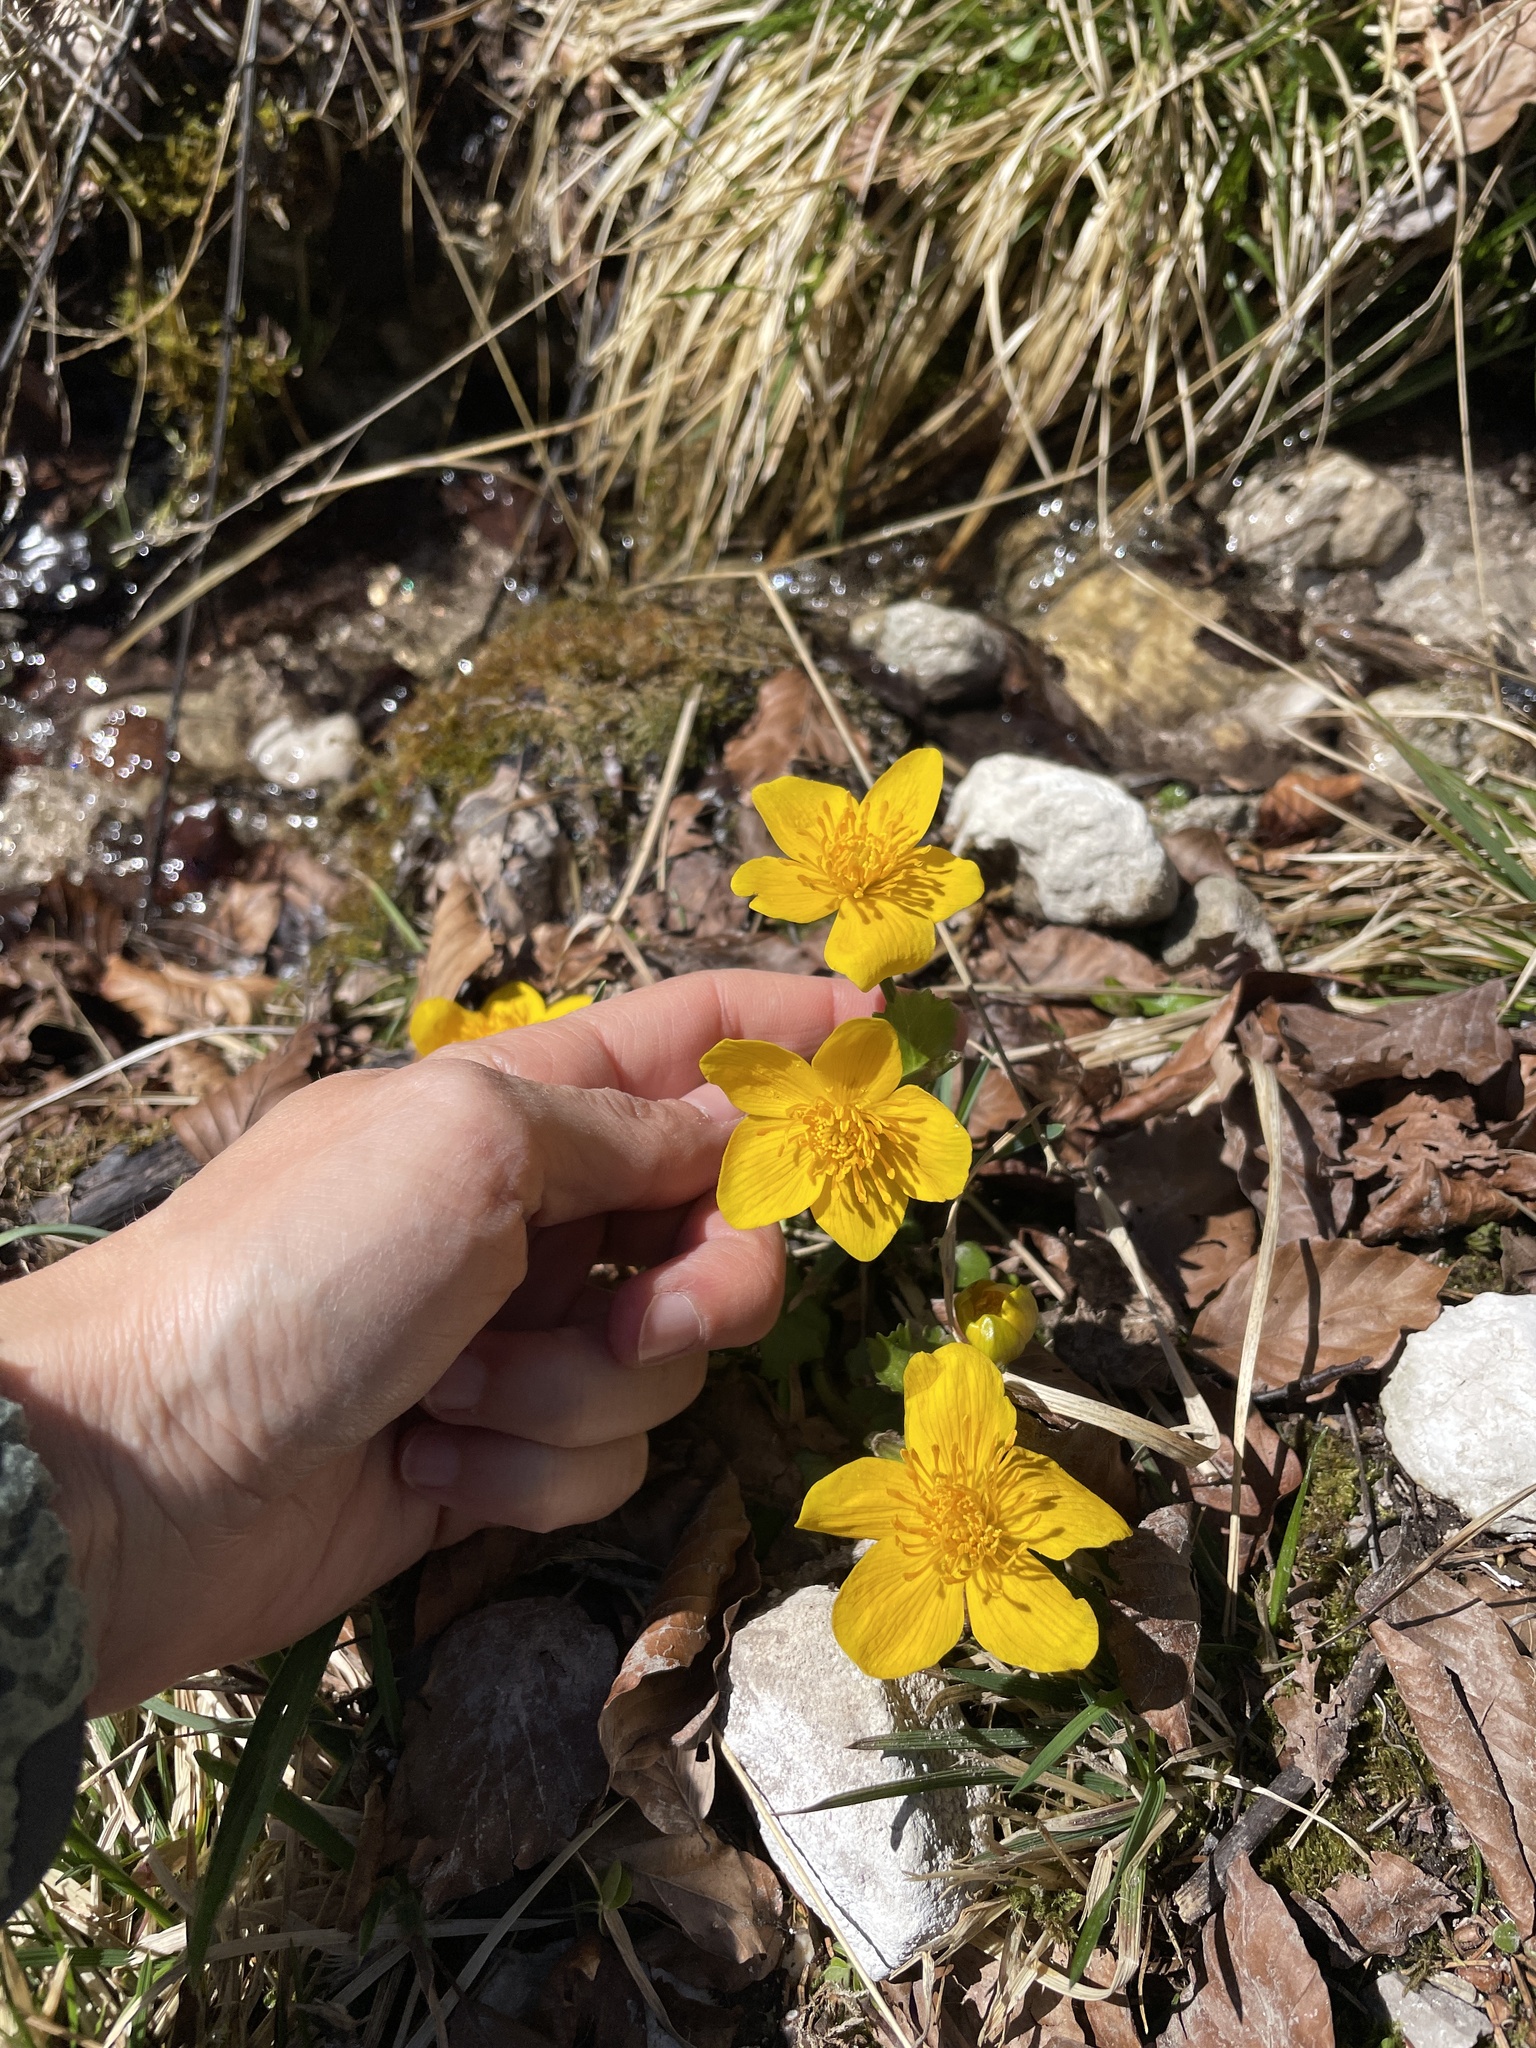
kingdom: Plantae
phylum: Tracheophyta
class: Magnoliopsida
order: Ranunculales
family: Ranunculaceae
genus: Caltha
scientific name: Caltha palustris
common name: Marsh marigold
